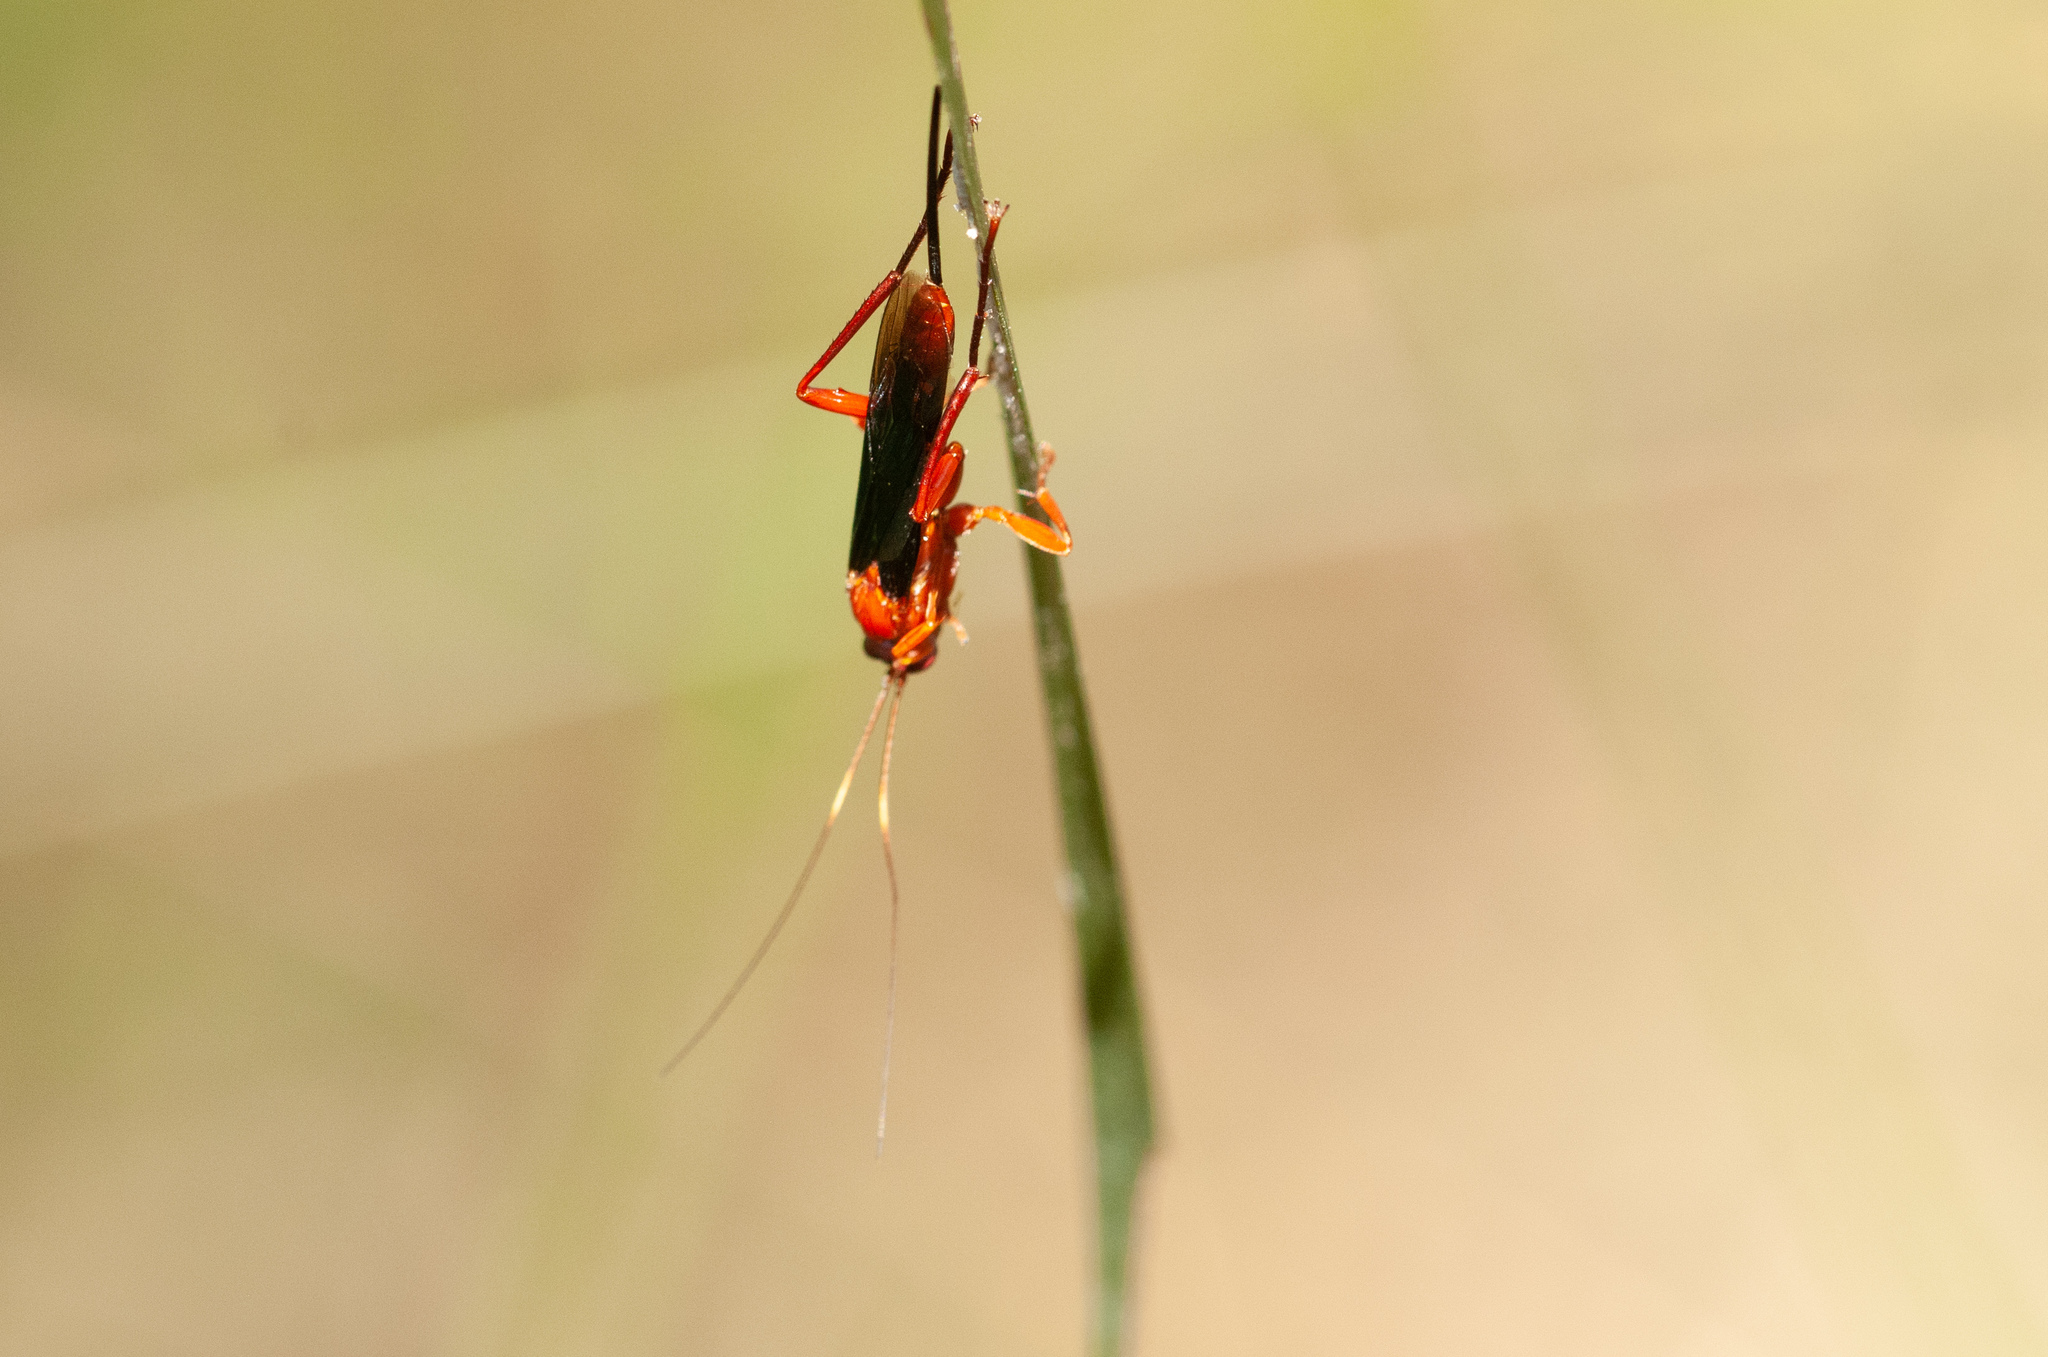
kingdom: Animalia
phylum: Arthropoda
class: Insecta
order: Hymenoptera
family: Ichneumonidae
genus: Lissopimpla
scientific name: Lissopimpla excelsa
